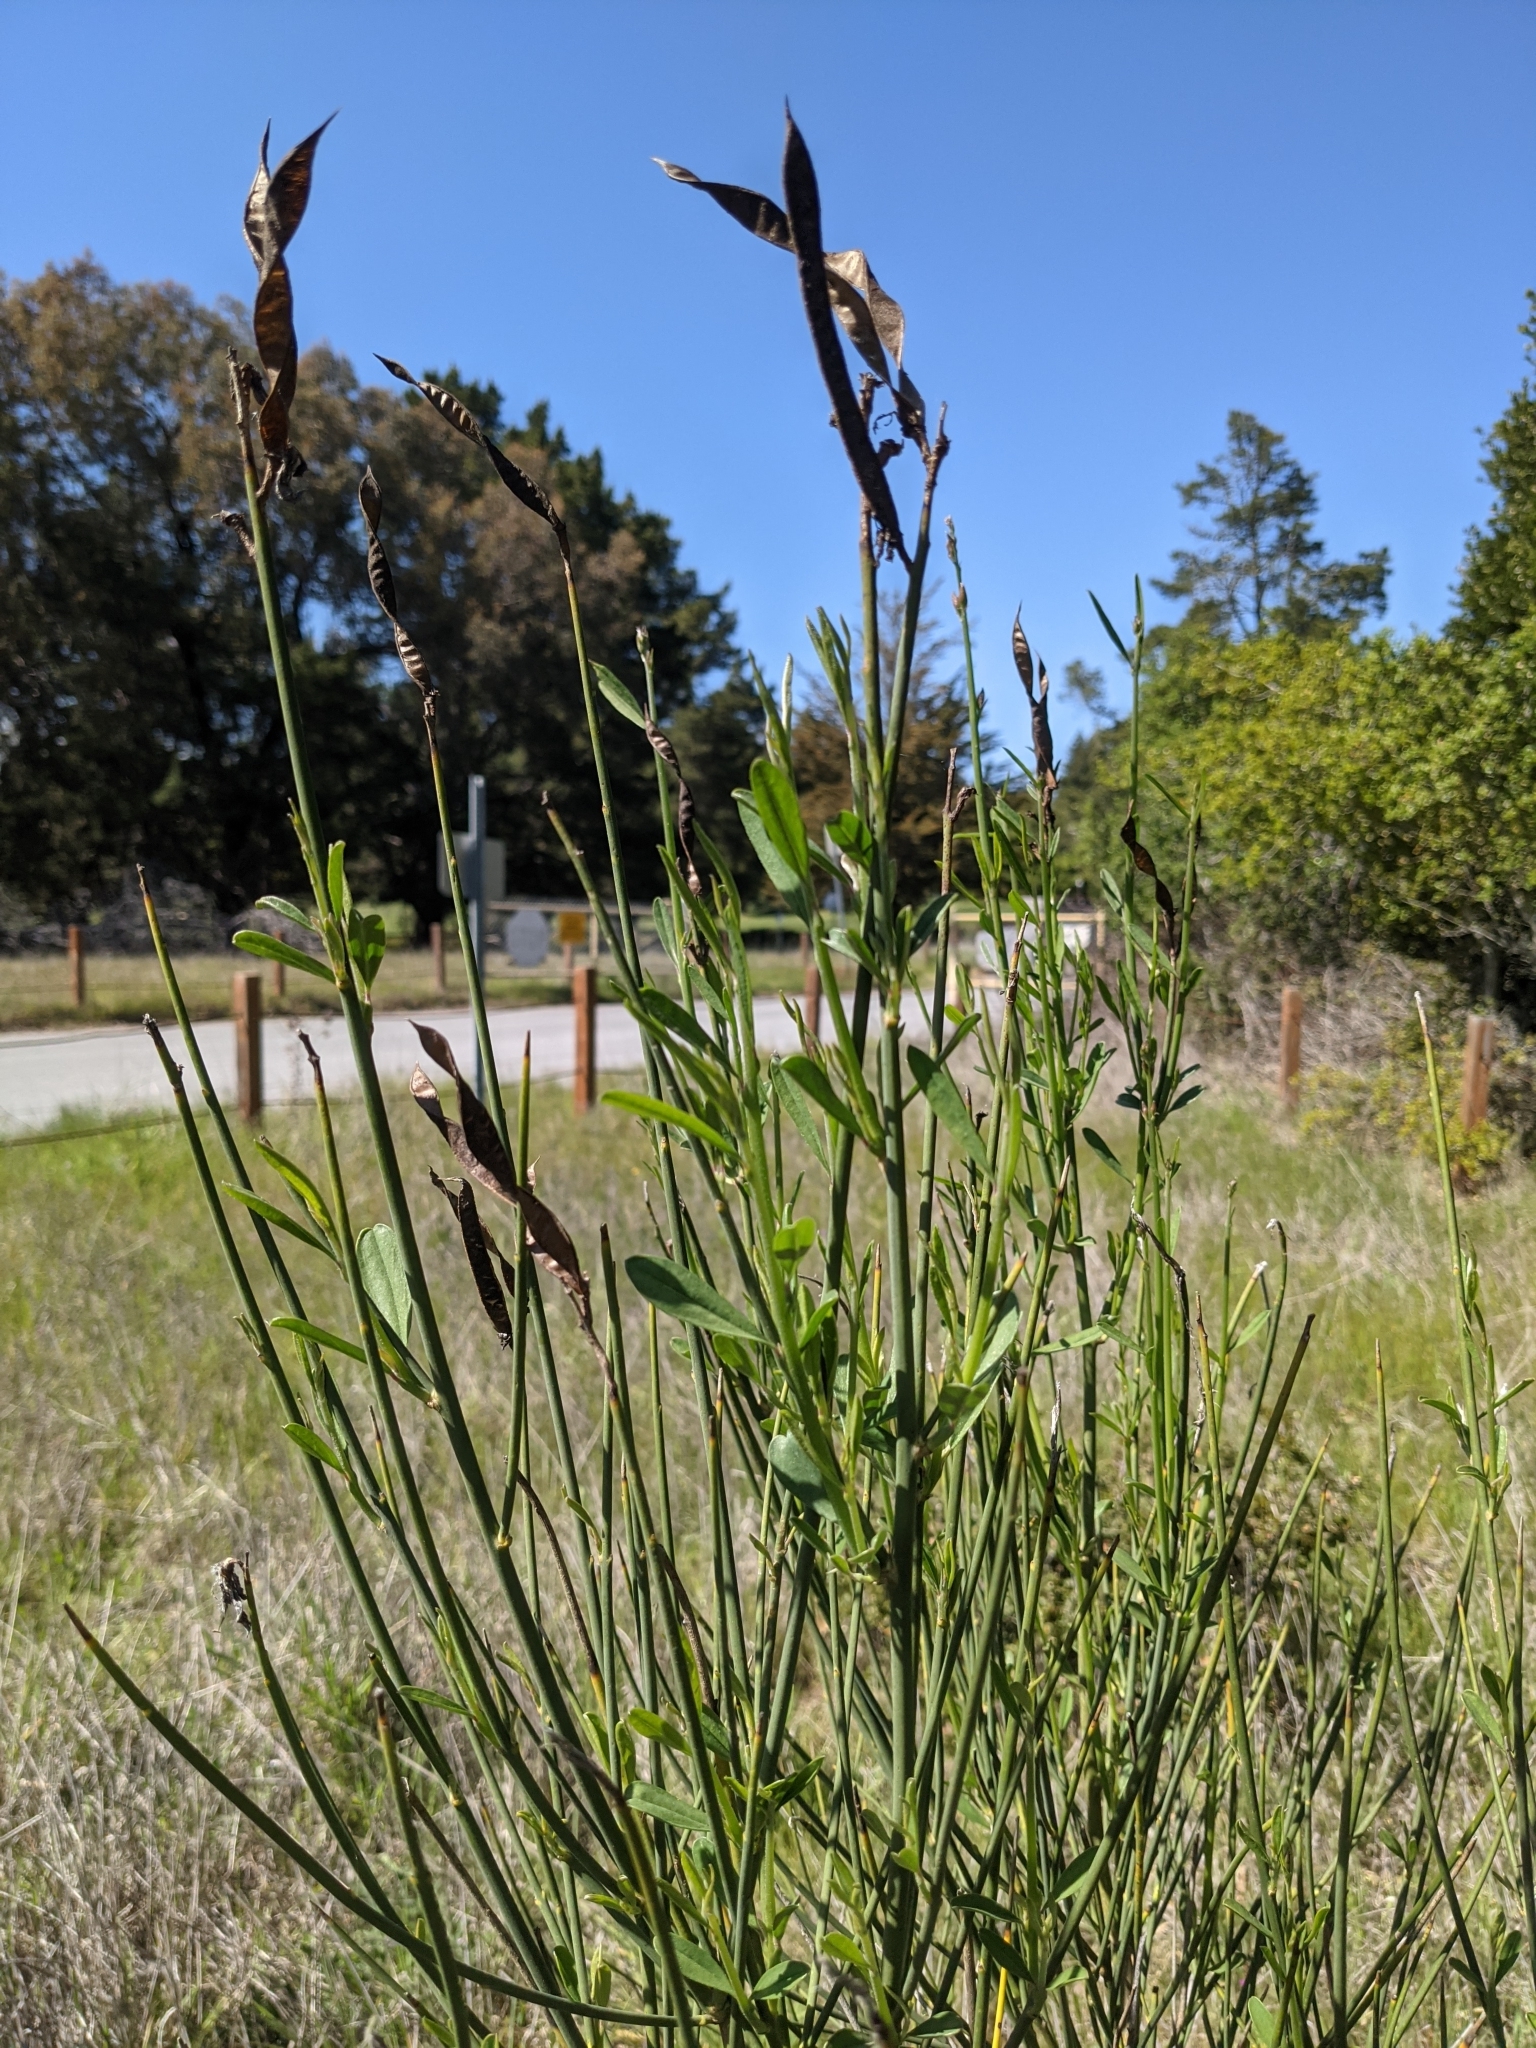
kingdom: Plantae
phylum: Tracheophyta
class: Magnoliopsida
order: Fabales
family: Fabaceae
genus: Spartium
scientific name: Spartium junceum
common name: Spanish broom
